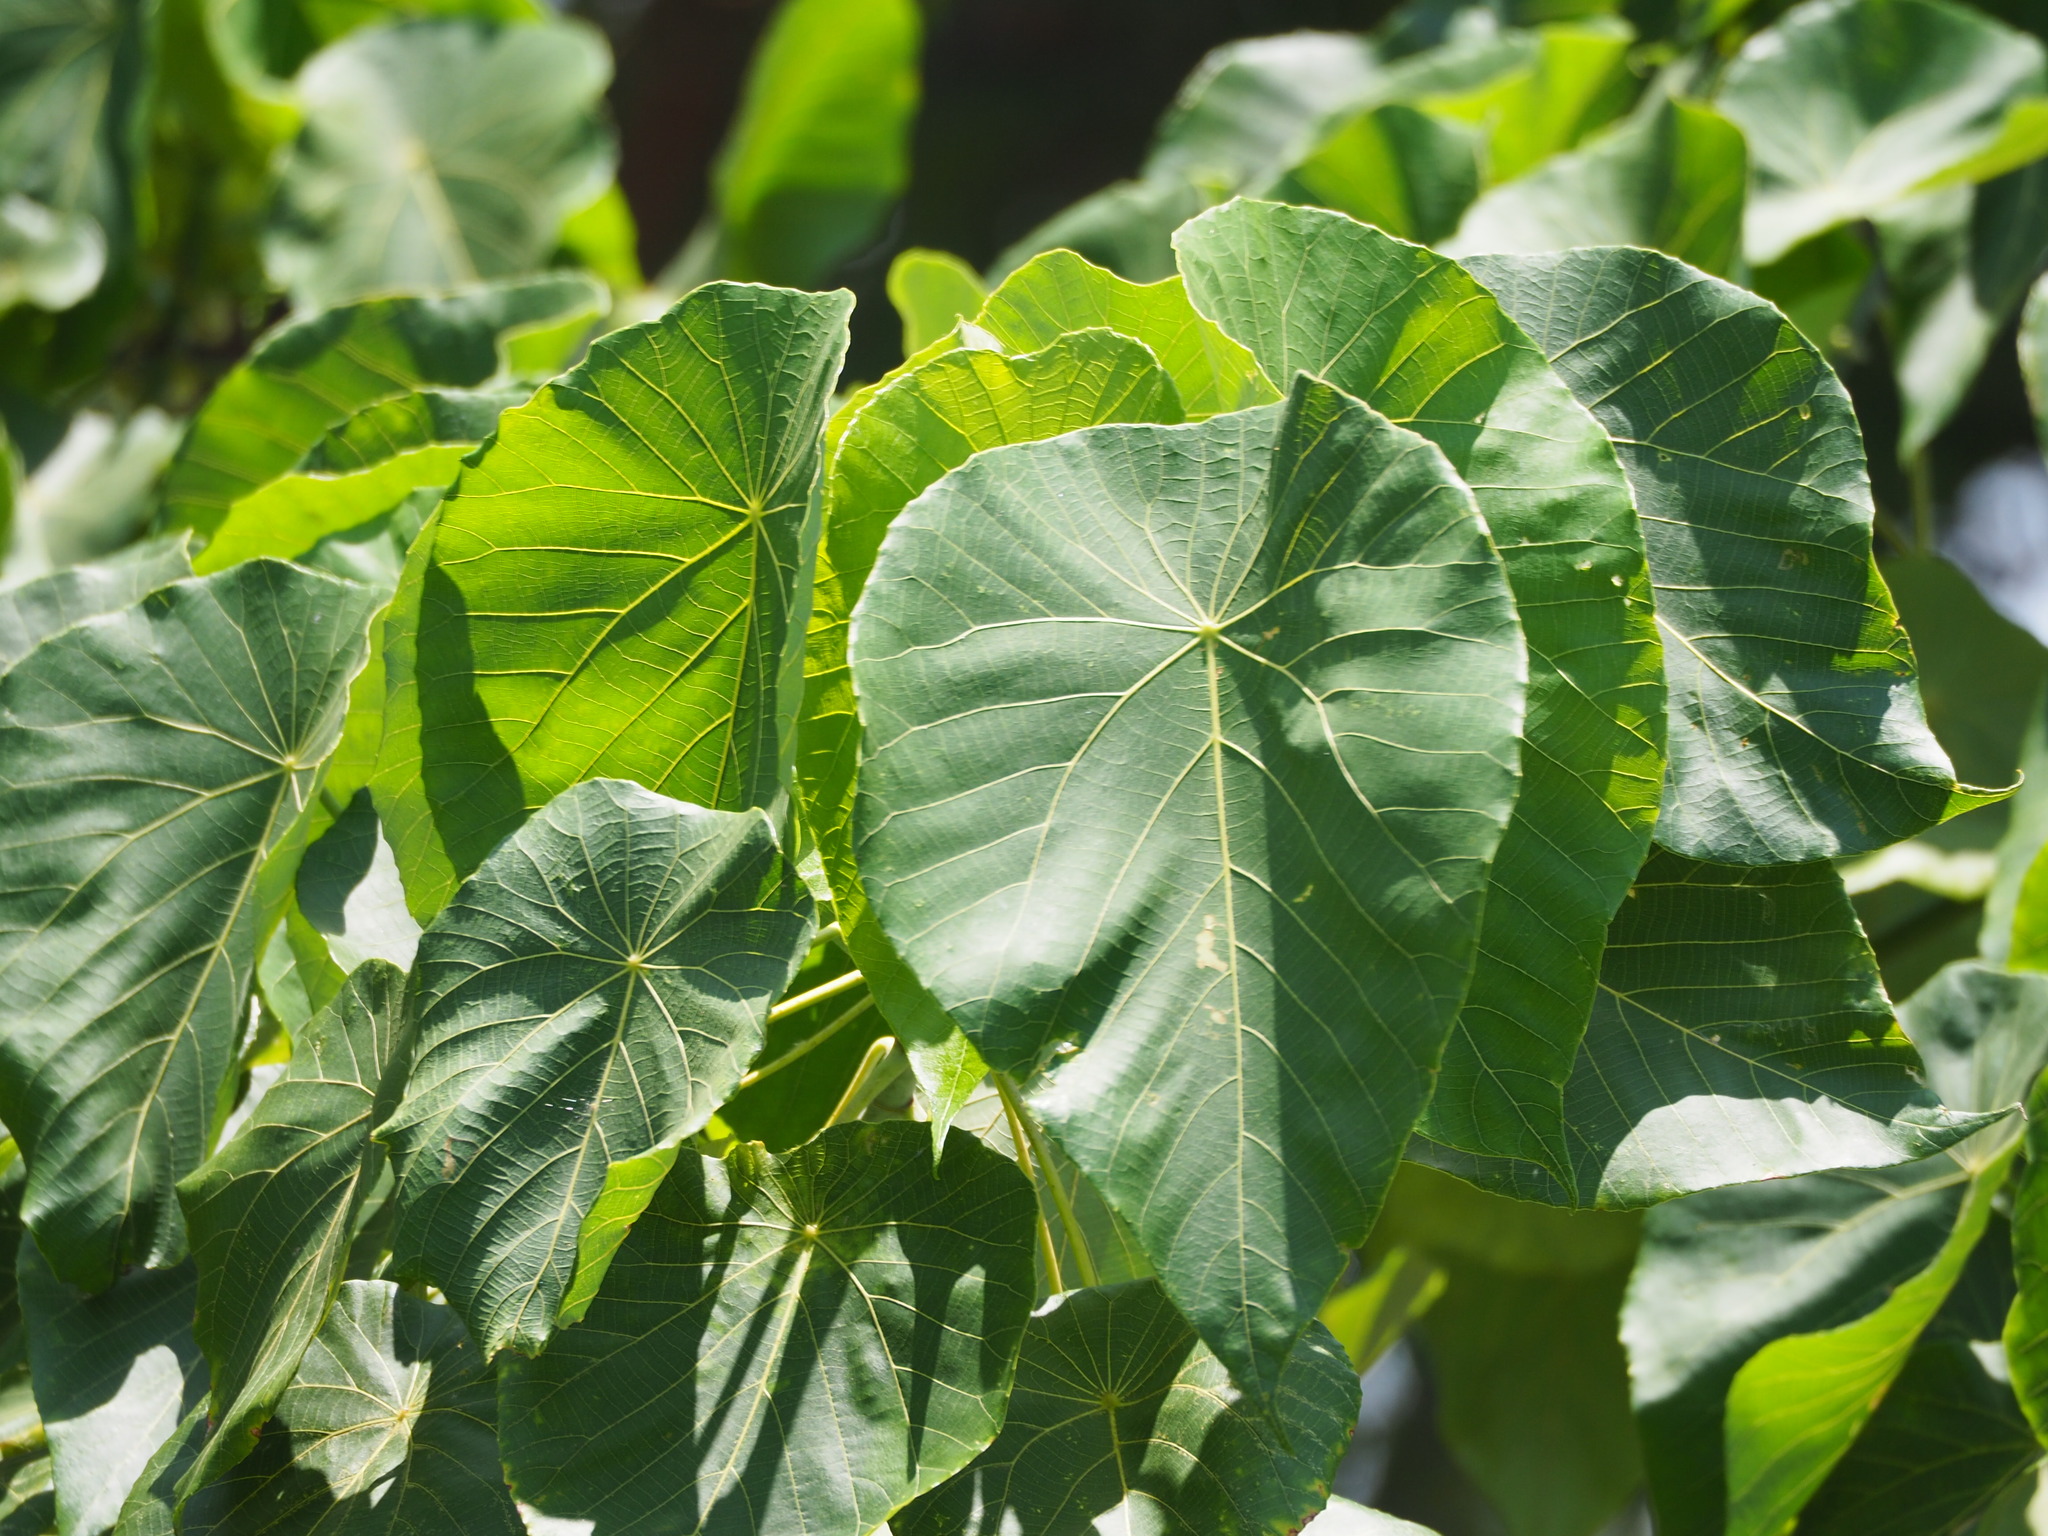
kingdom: Plantae
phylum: Tracheophyta
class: Magnoliopsida
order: Malpighiales
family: Euphorbiaceae
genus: Macaranga
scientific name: Macaranga tanarius
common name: Parasol leaf tree
